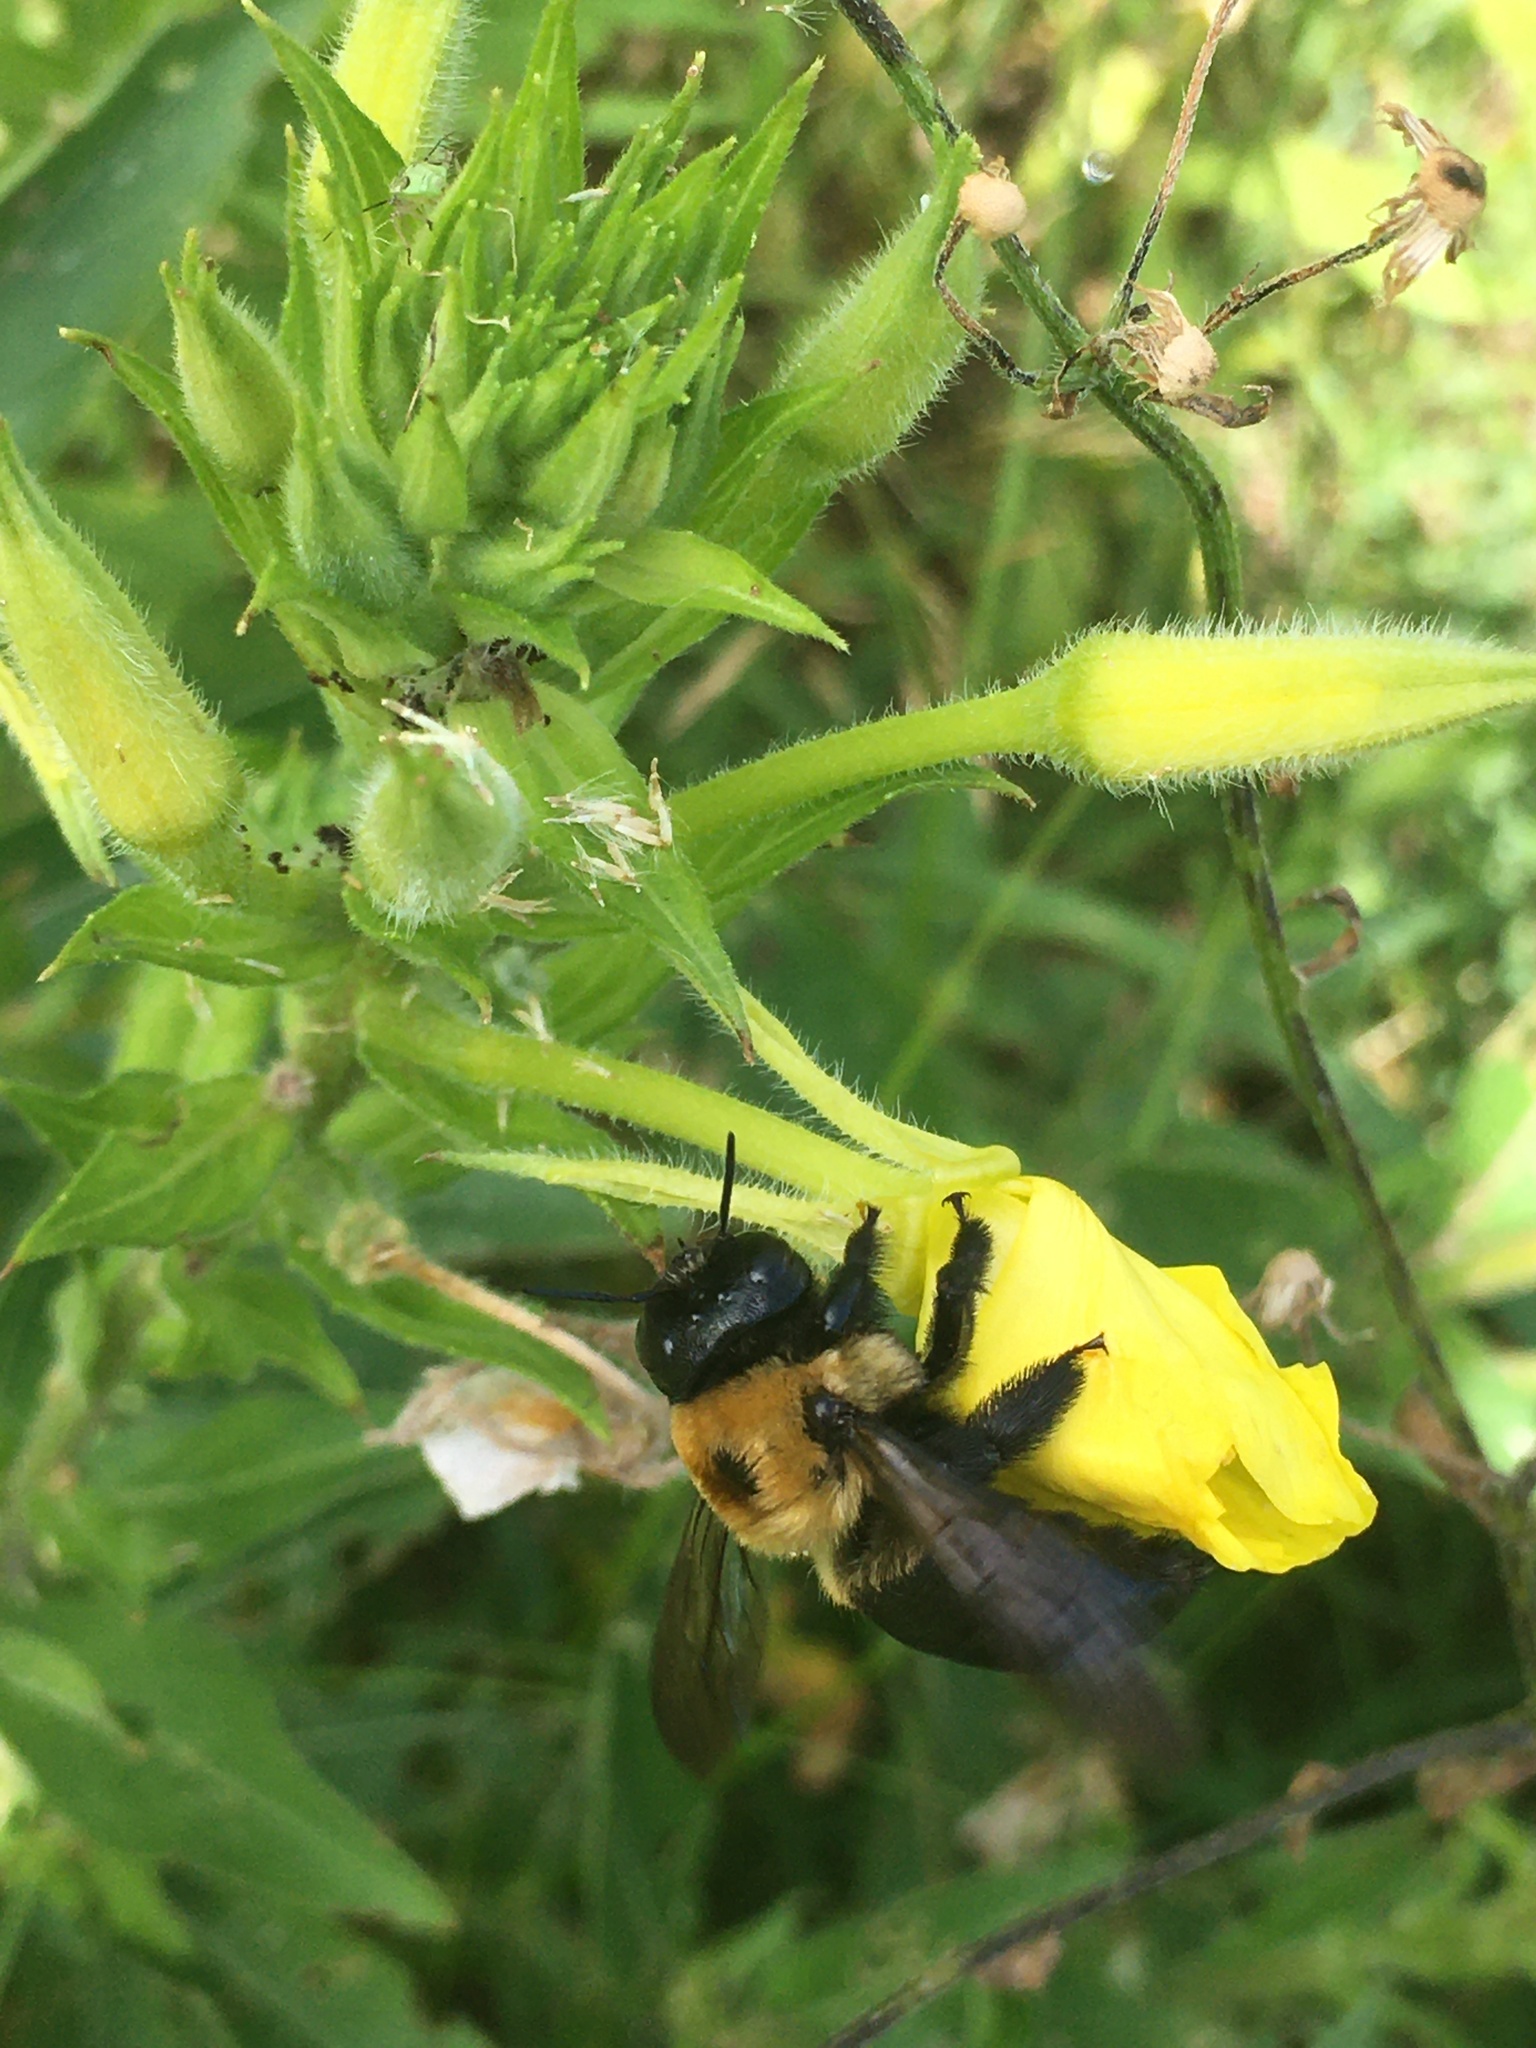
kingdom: Animalia
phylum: Arthropoda
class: Insecta
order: Hymenoptera
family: Apidae
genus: Xylocopa
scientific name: Xylocopa virginica
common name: Carpenter bee
